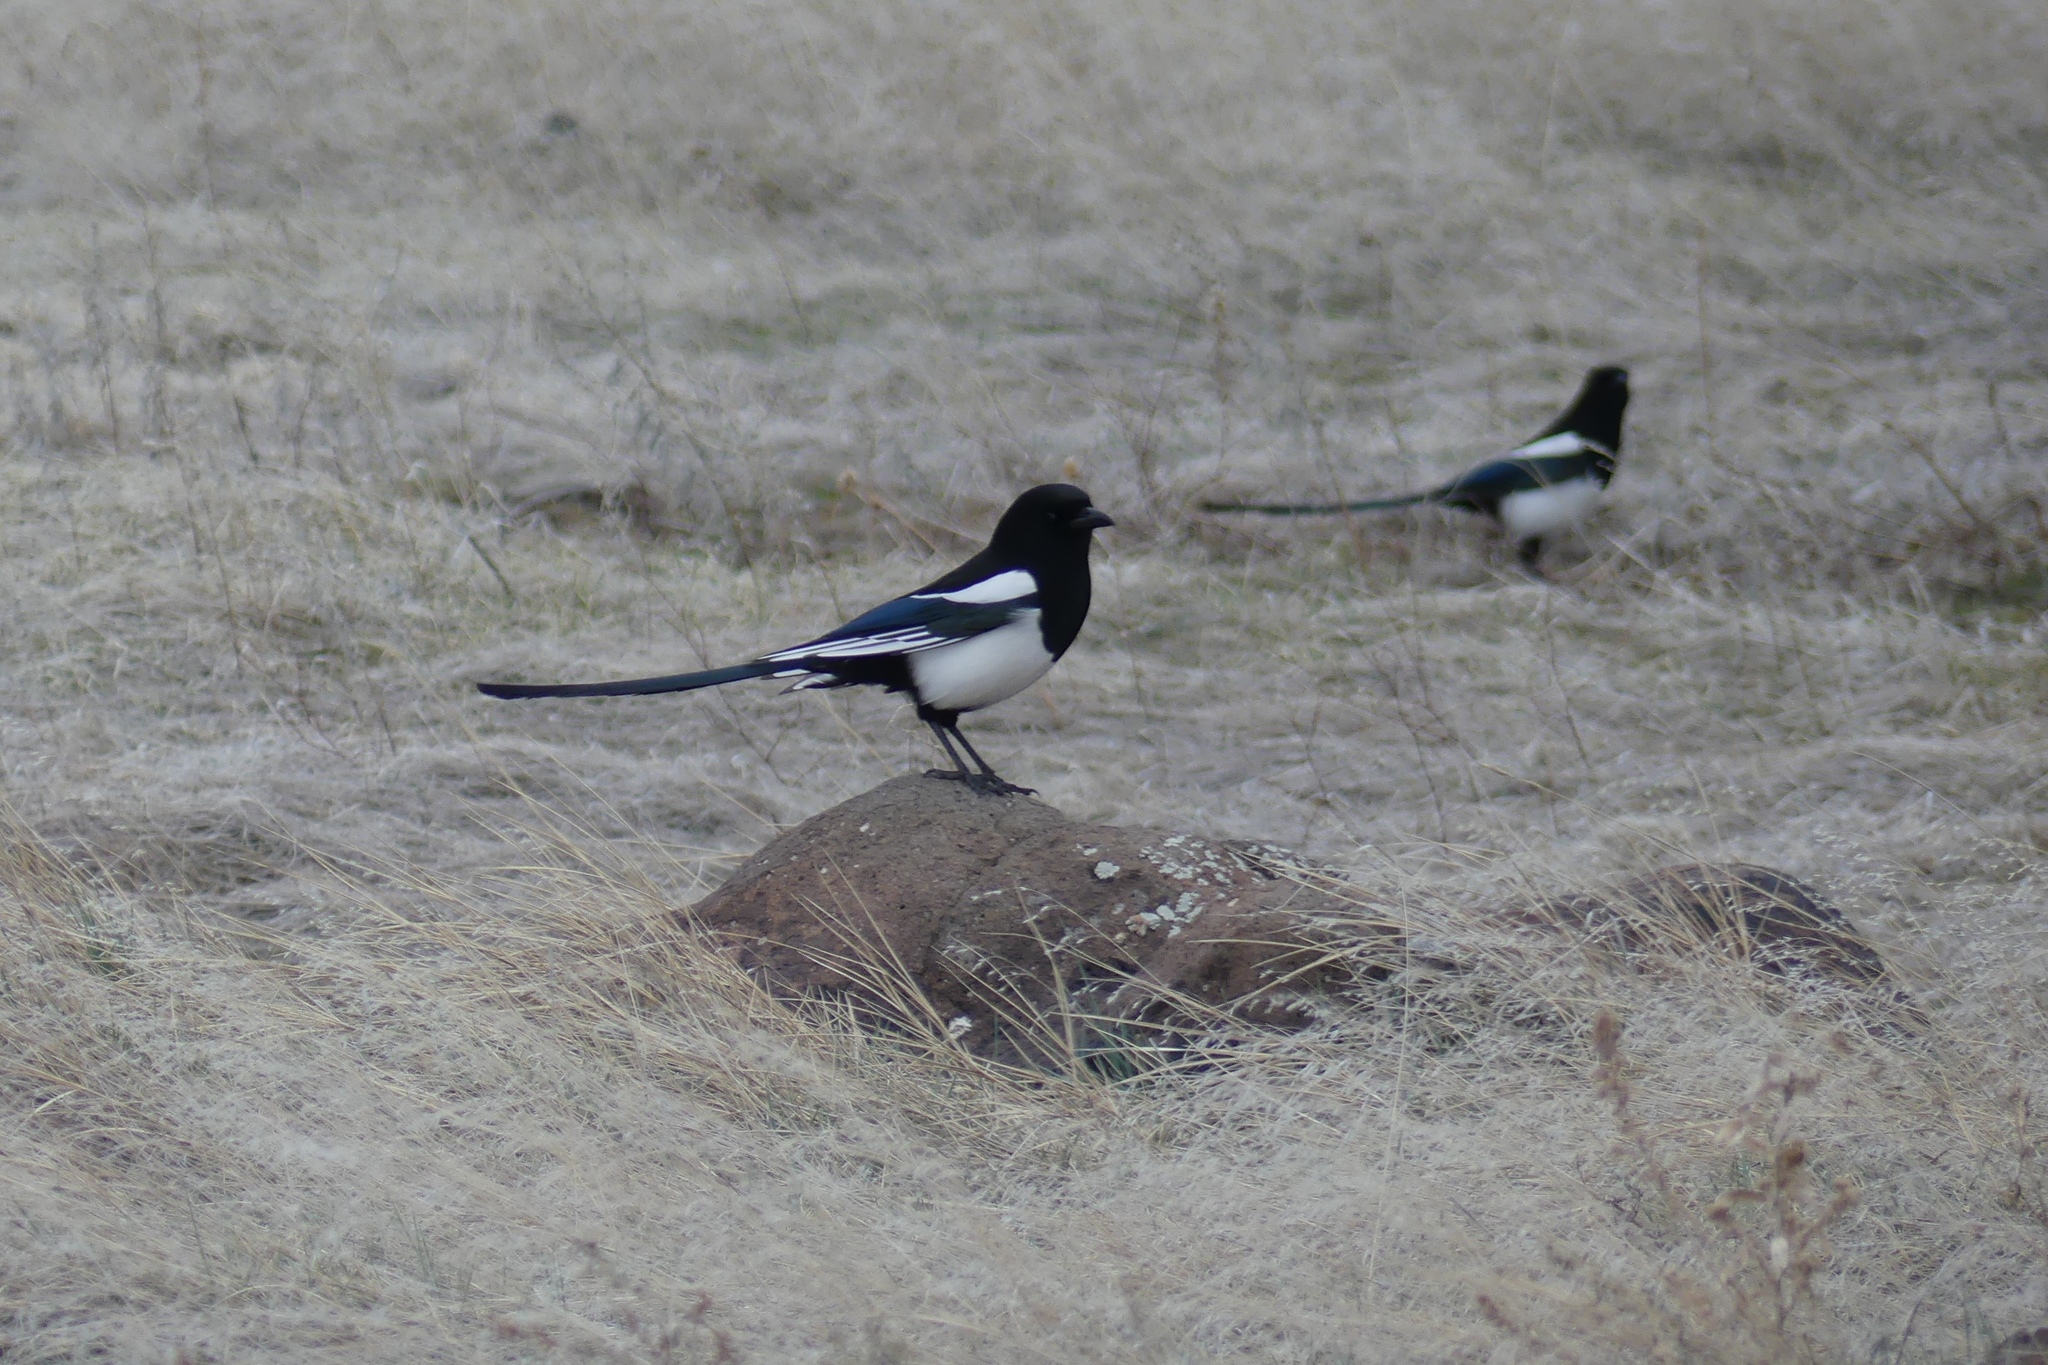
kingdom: Animalia
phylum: Chordata
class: Aves
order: Passeriformes
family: Corvidae
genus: Pica
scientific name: Pica hudsonia
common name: Black-billed magpie
